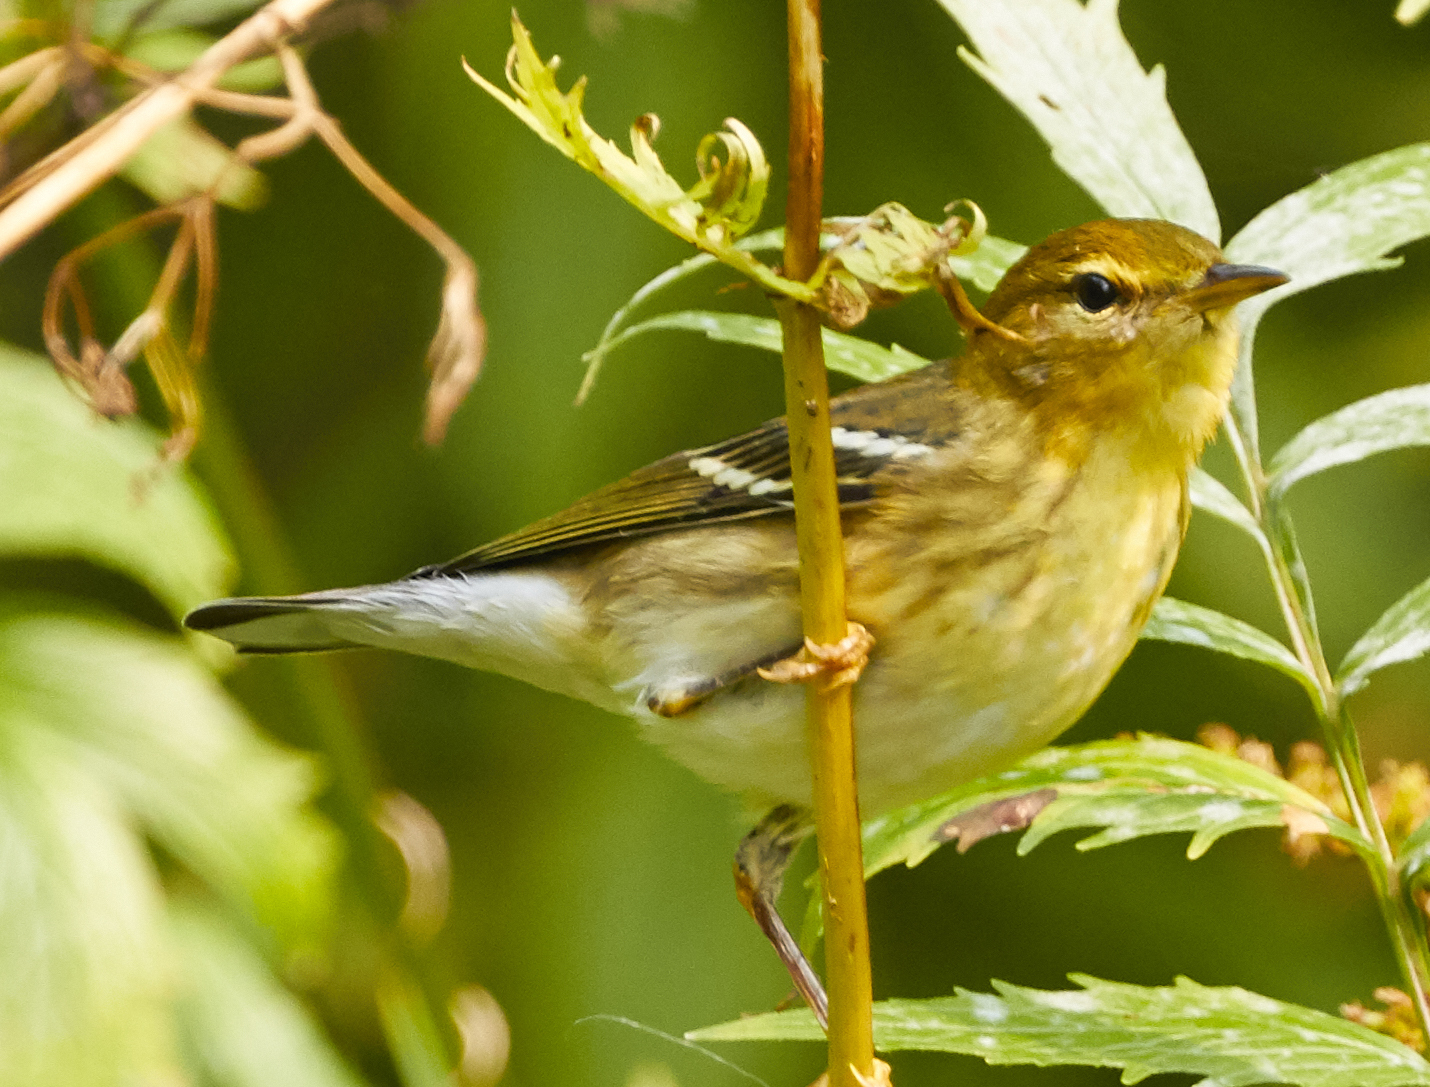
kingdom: Animalia
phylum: Chordata
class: Aves
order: Passeriformes
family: Parulidae
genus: Setophaga
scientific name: Setophaga striata
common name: Blackpoll warbler
